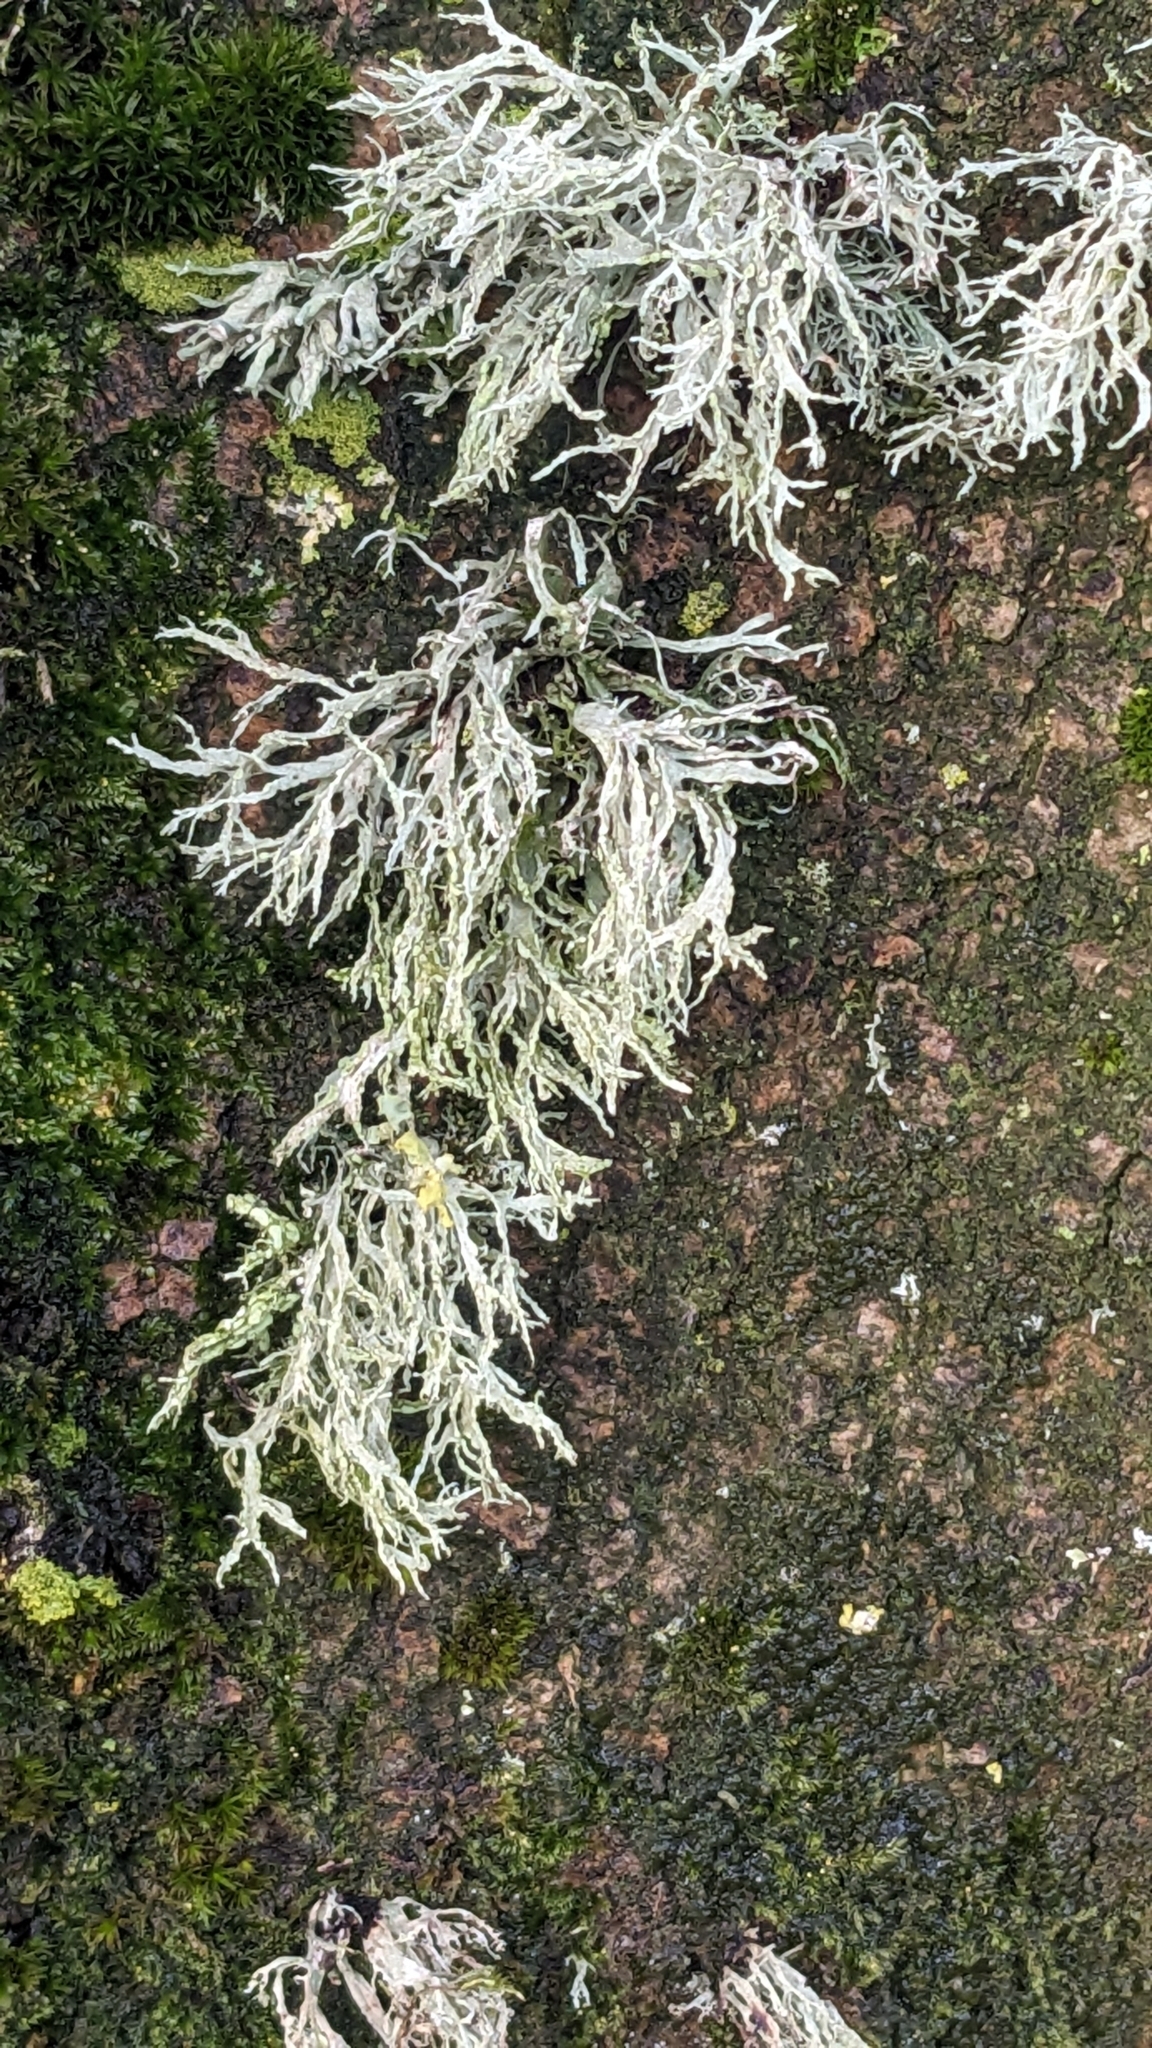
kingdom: Fungi
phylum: Ascomycota
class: Lecanoromycetes
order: Lecanorales
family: Ramalinaceae
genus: Ramalina
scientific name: Ramalina farinacea
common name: Farinose cartilage lichen
